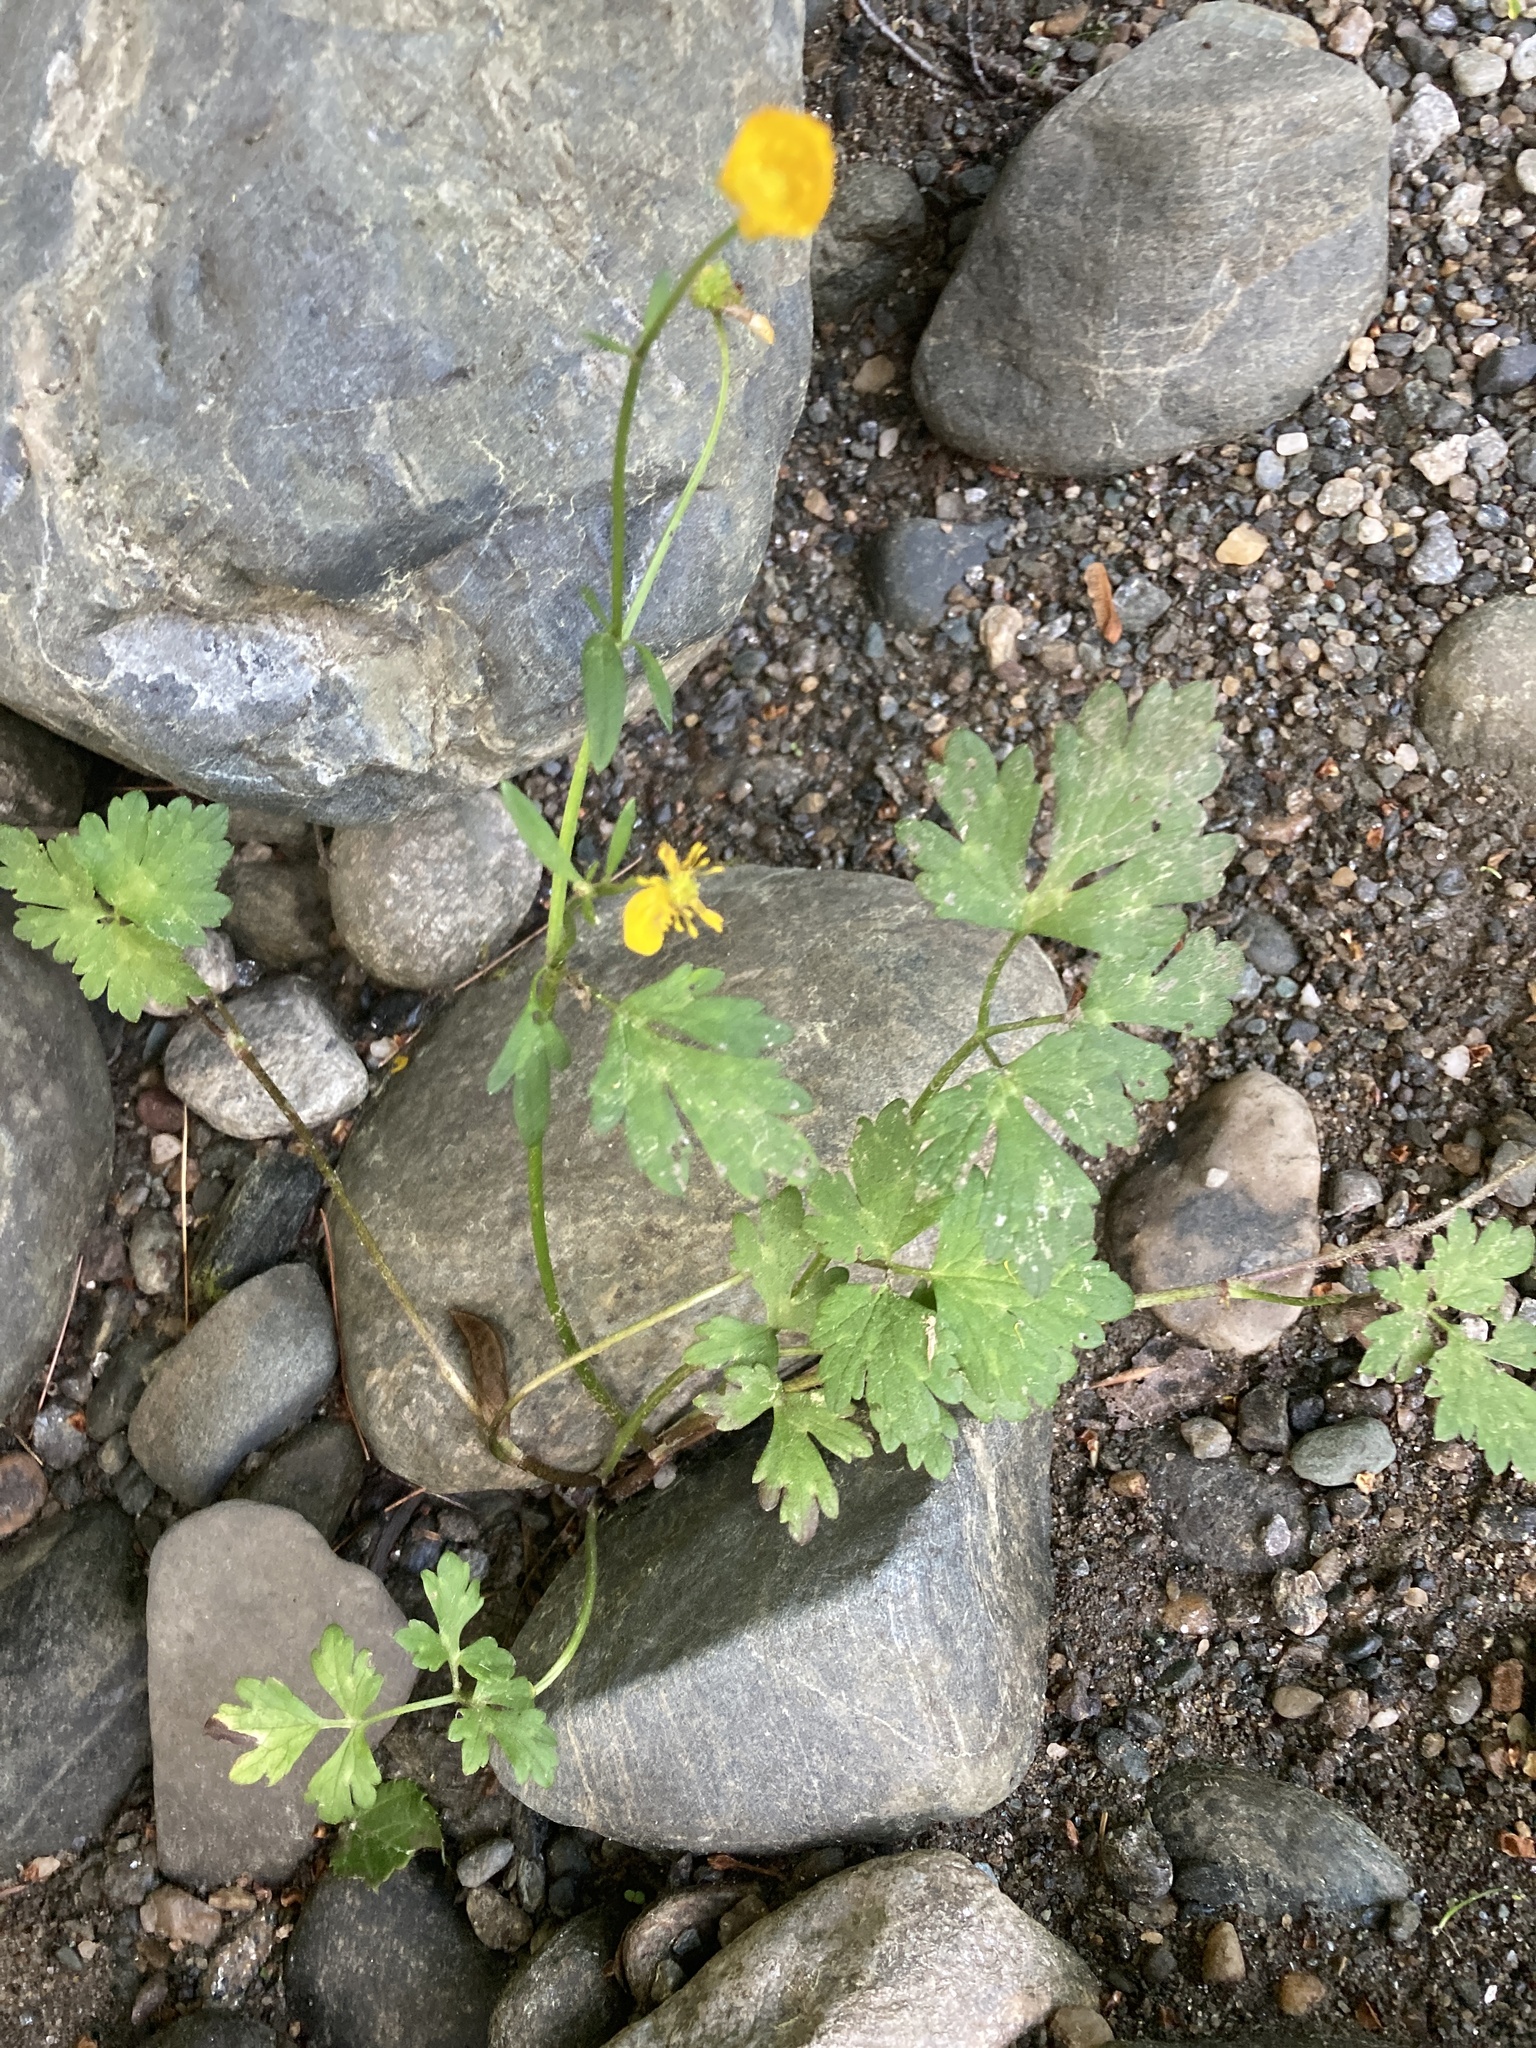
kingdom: Plantae
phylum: Tracheophyta
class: Magnoliopsida
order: Ranunculales
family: Ranunculaceae
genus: Ranunculus
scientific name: Ranunculus repens
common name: Creeping buttercup
